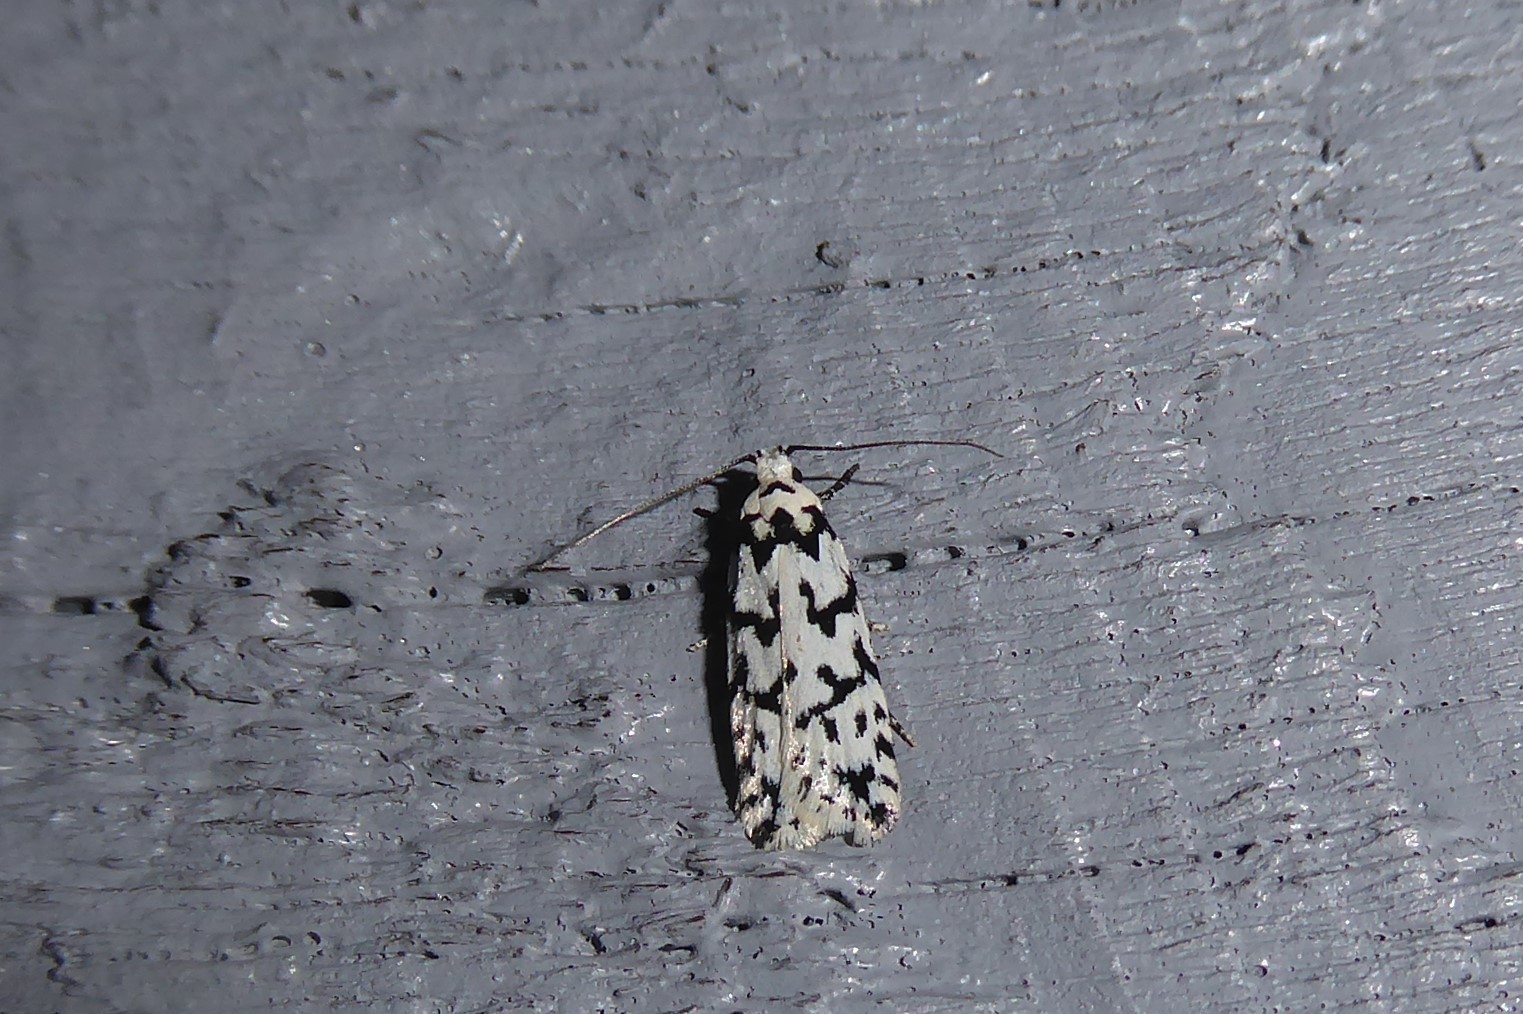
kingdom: Animalia
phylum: Arthropoda
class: Insecta
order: Lepidoptera
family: Oecophoridae
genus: Izatha
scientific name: Izatha katadiktya
